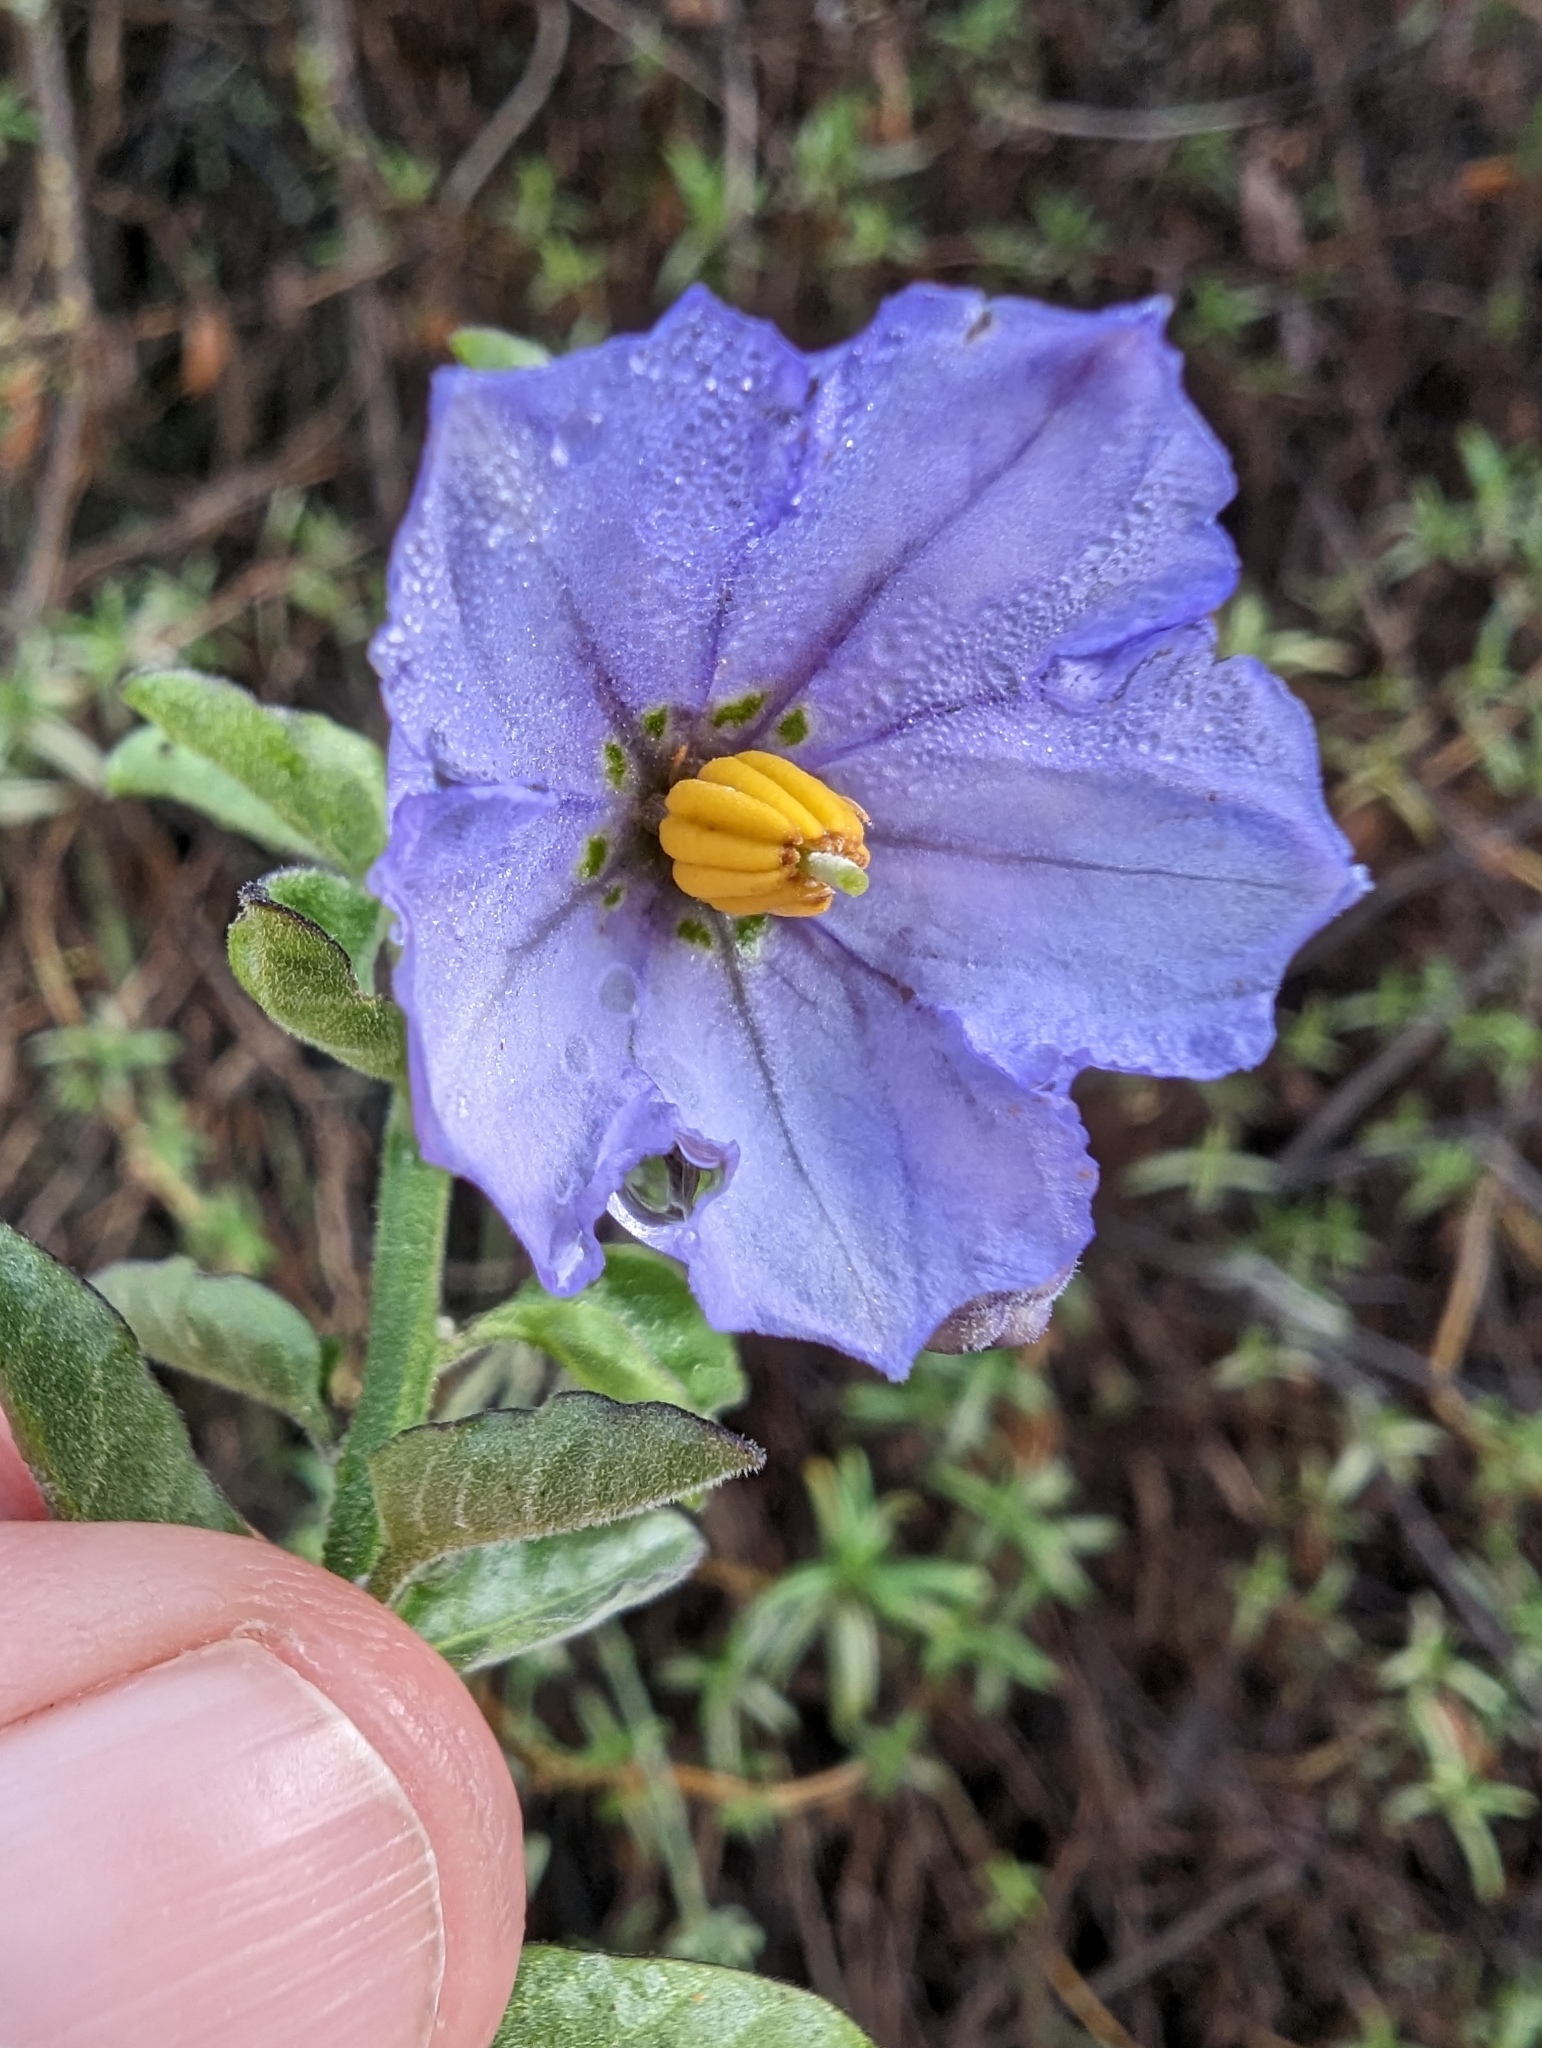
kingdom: Plantae
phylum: Tracheophyta
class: Magnoliopsida
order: Solanales
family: Solanaceae
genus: Solanum
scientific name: Solanum umbelliferum
